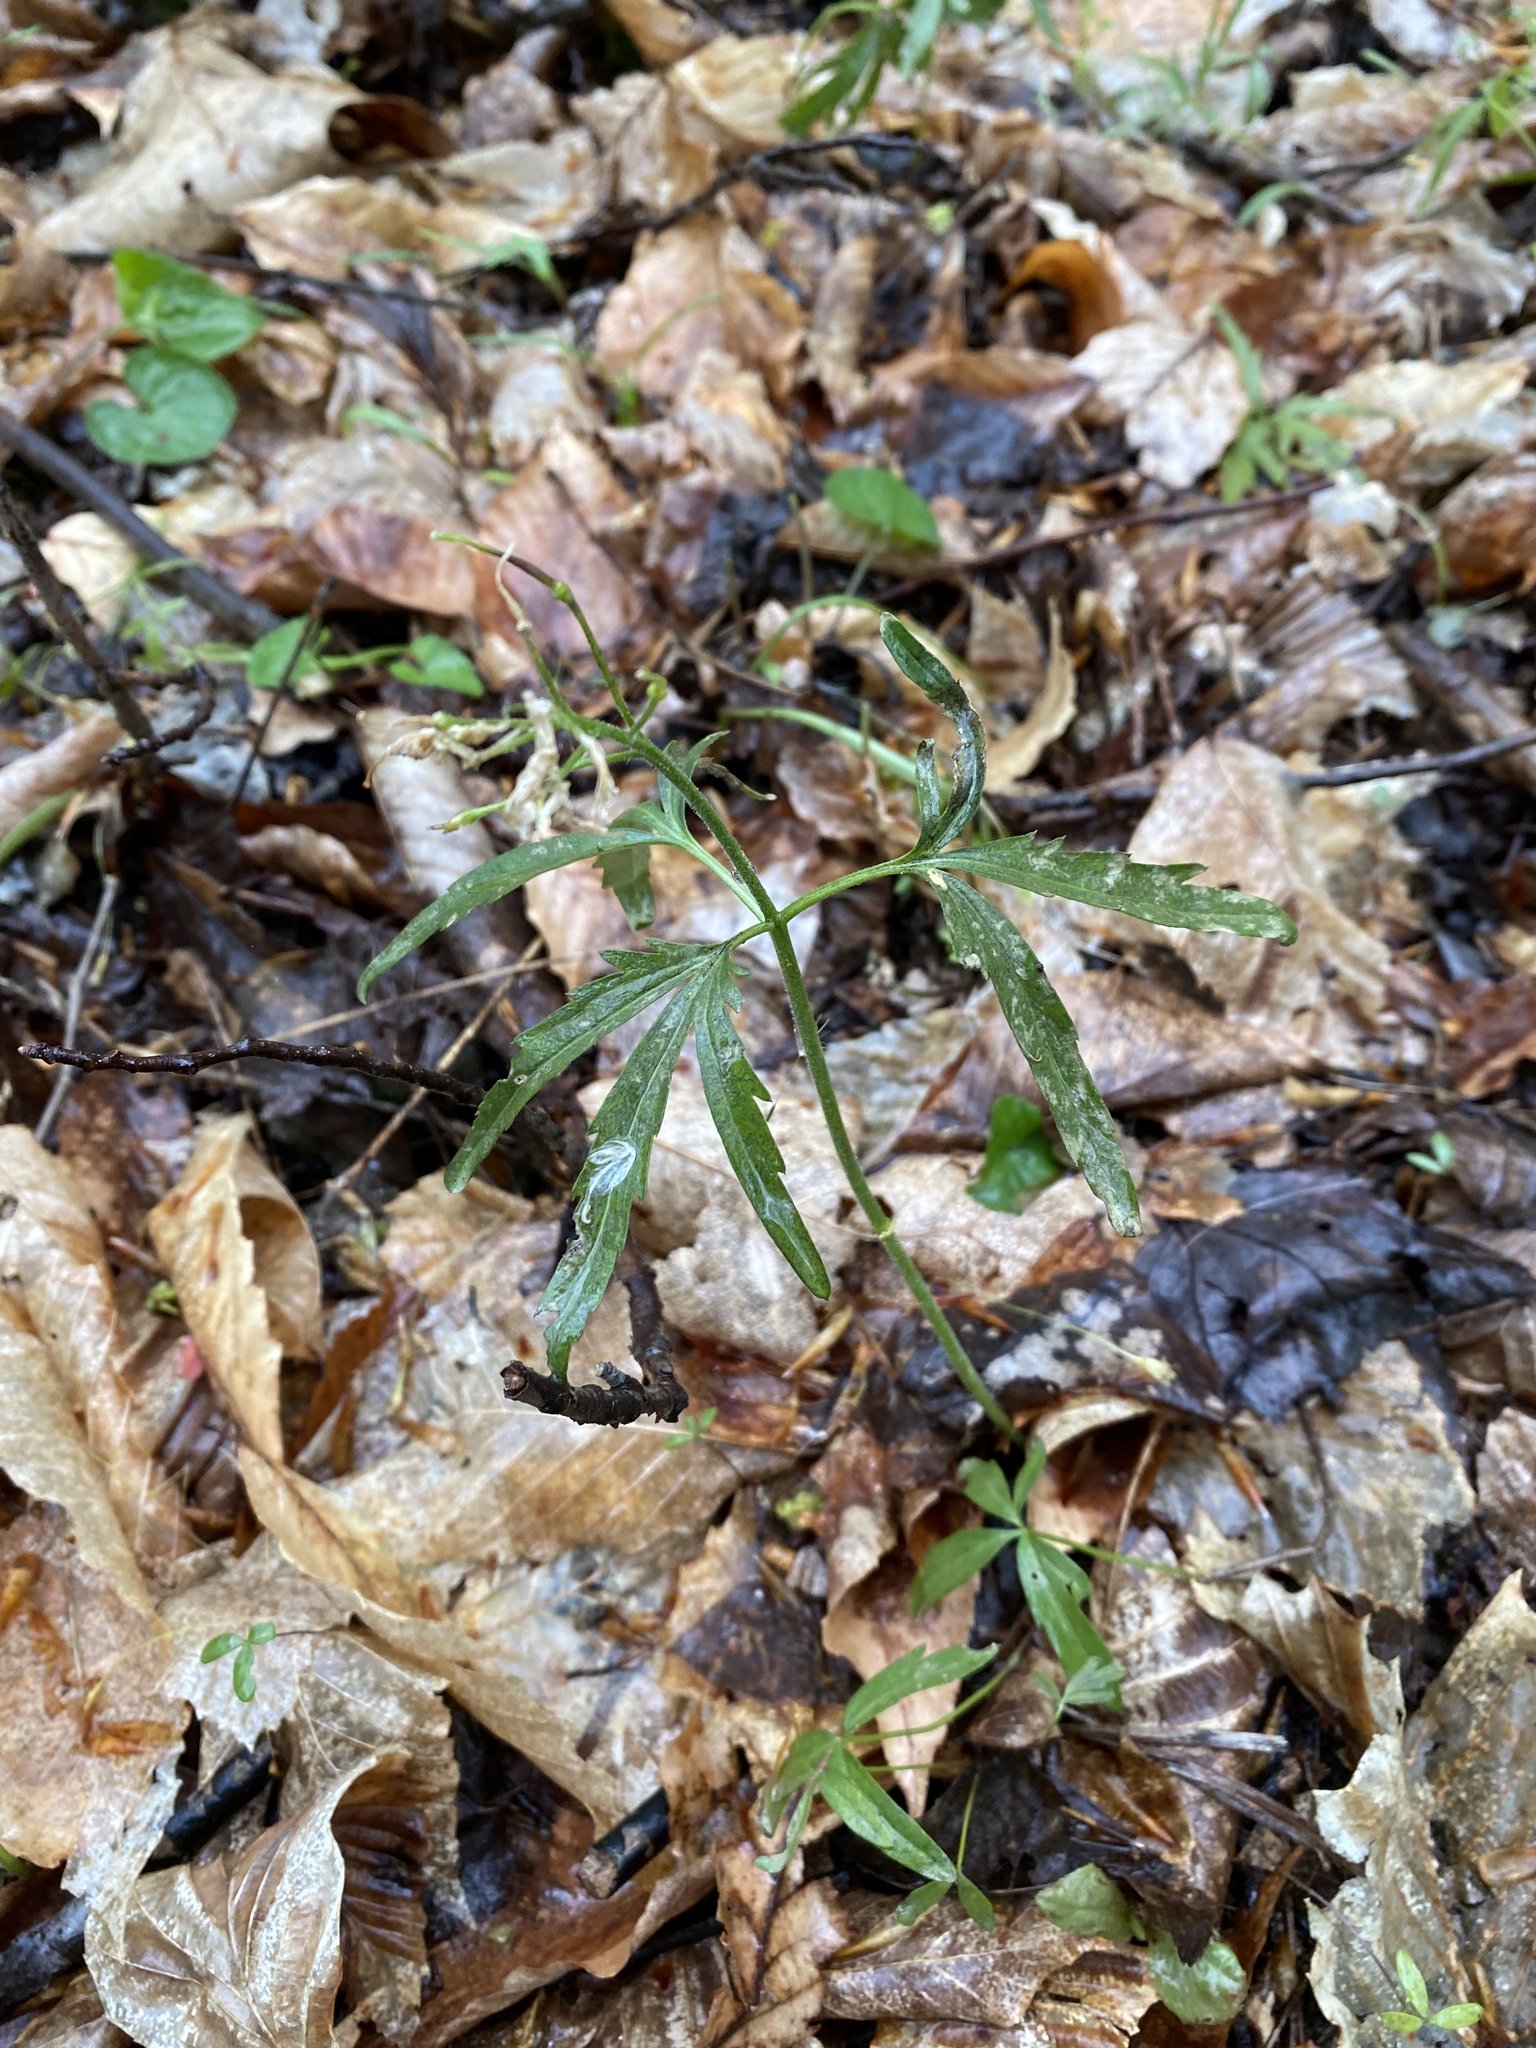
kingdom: Plantae
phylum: Tracheophyta
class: Magnoliopsida
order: Brassicales
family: Brassicaceae
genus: Cardamine
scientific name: Cardamine concatenata
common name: Cut-leaf toothcup
